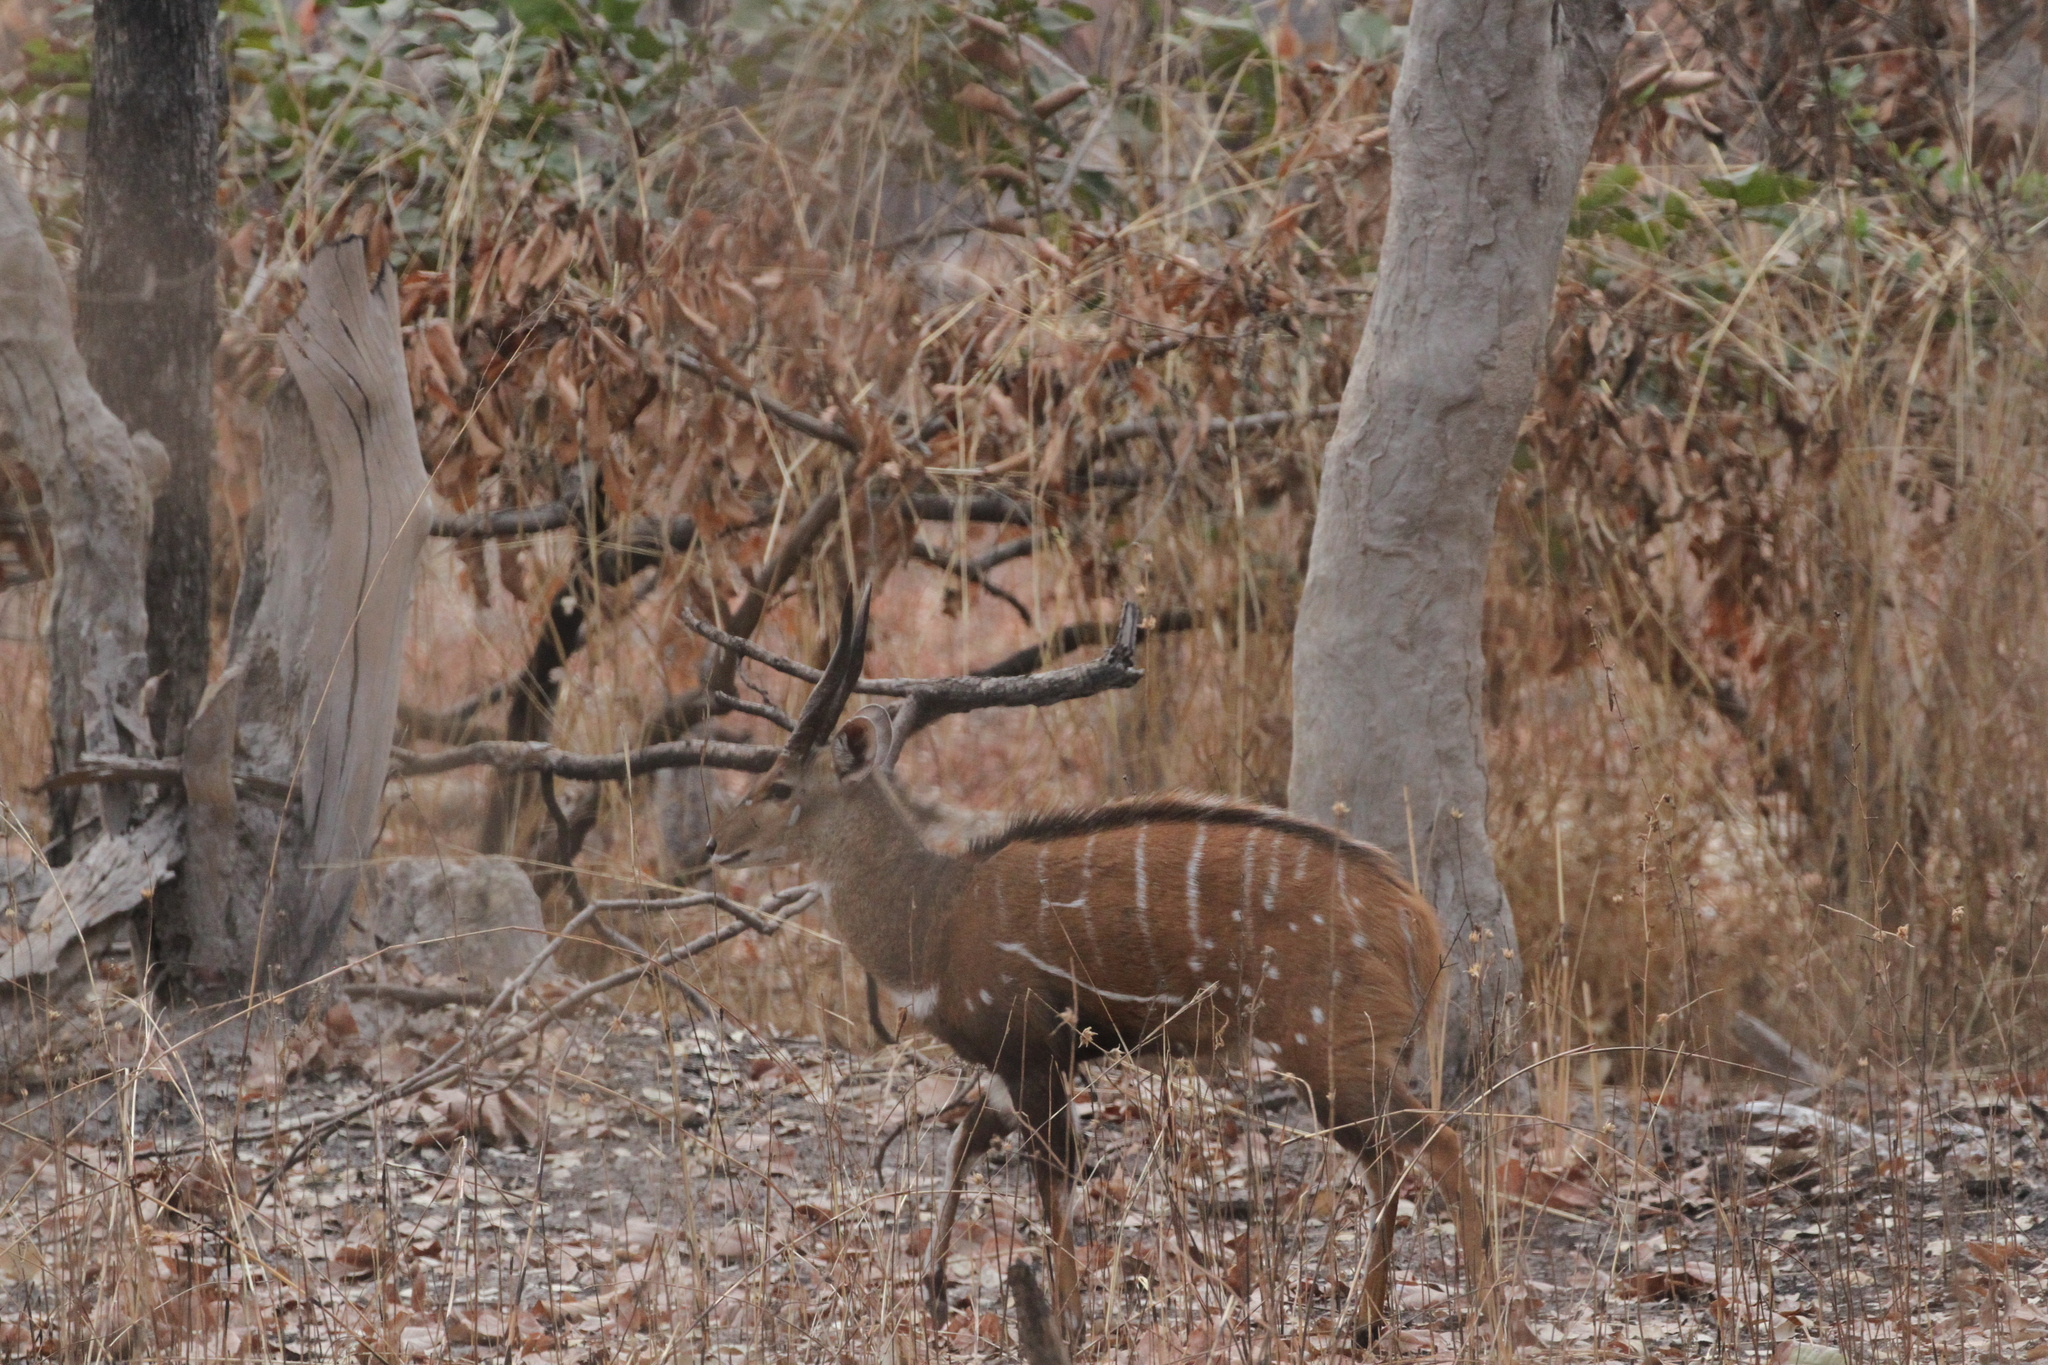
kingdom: Animalia
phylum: Chordata
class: Mammalia
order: Artiodactyla
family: Bovidae
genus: Tragelaphus
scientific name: Tragelaphus scriptus
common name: Bushbuck
